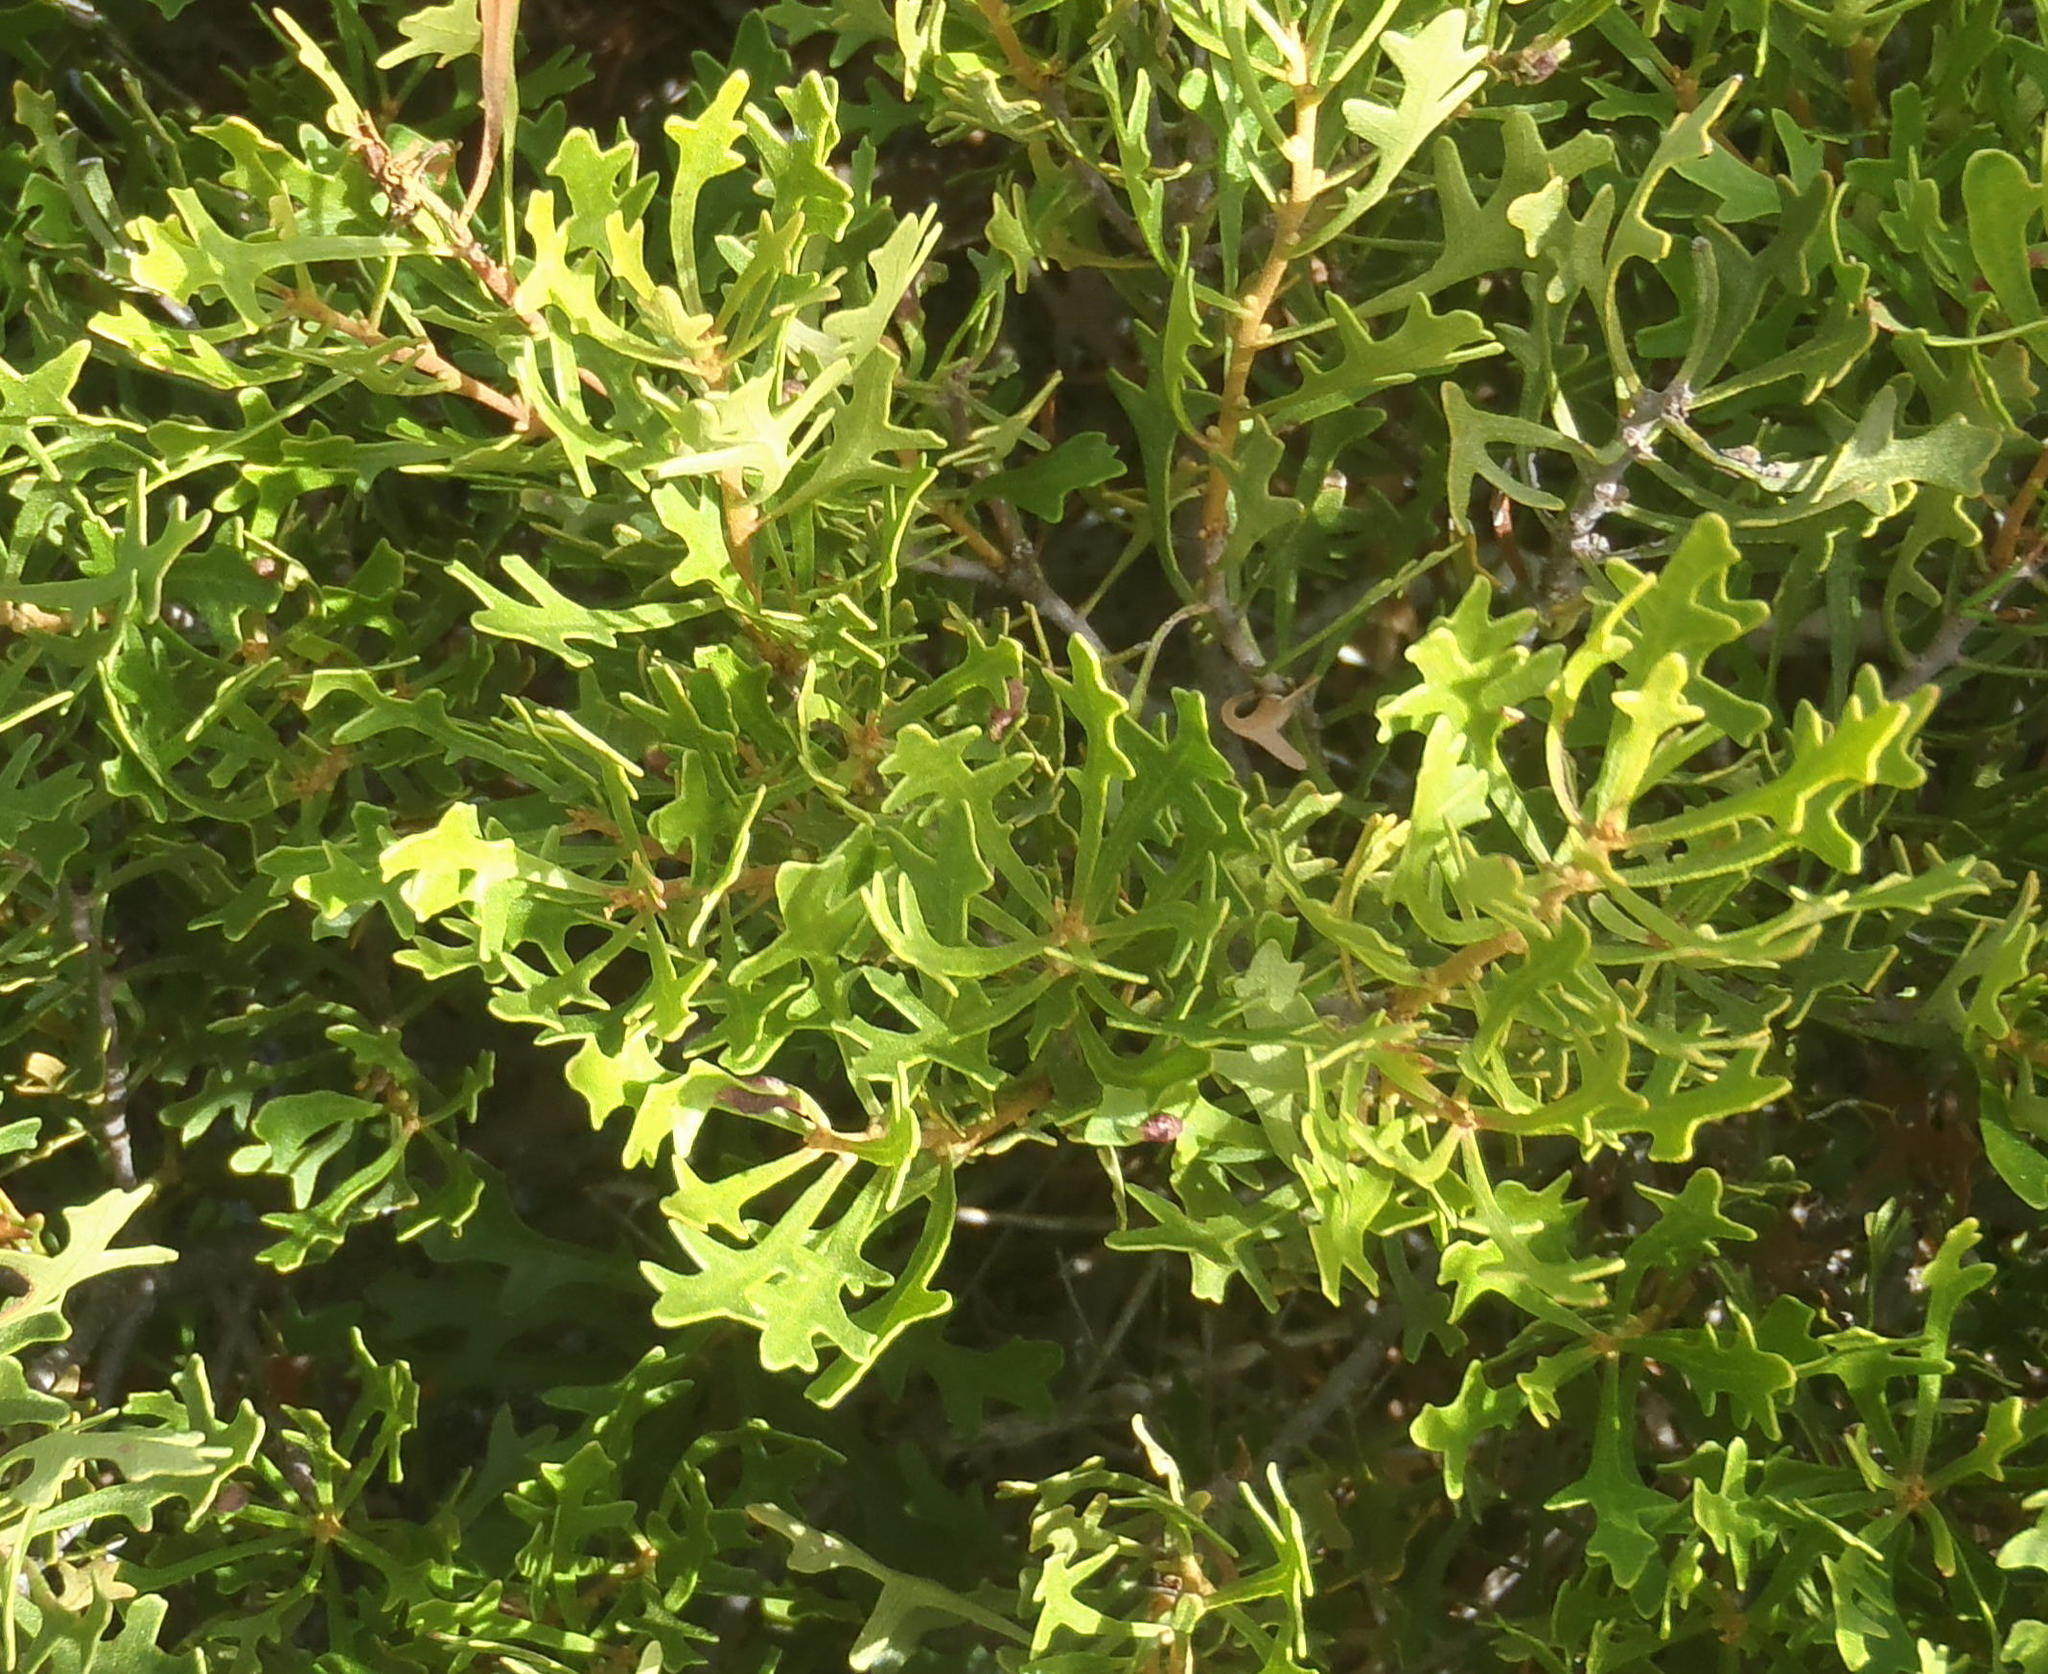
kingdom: Plantae
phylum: Tracheophyta
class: Magnoliopsida
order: Fagales
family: Myricaceae
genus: Morella
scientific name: Morella quercifolia
